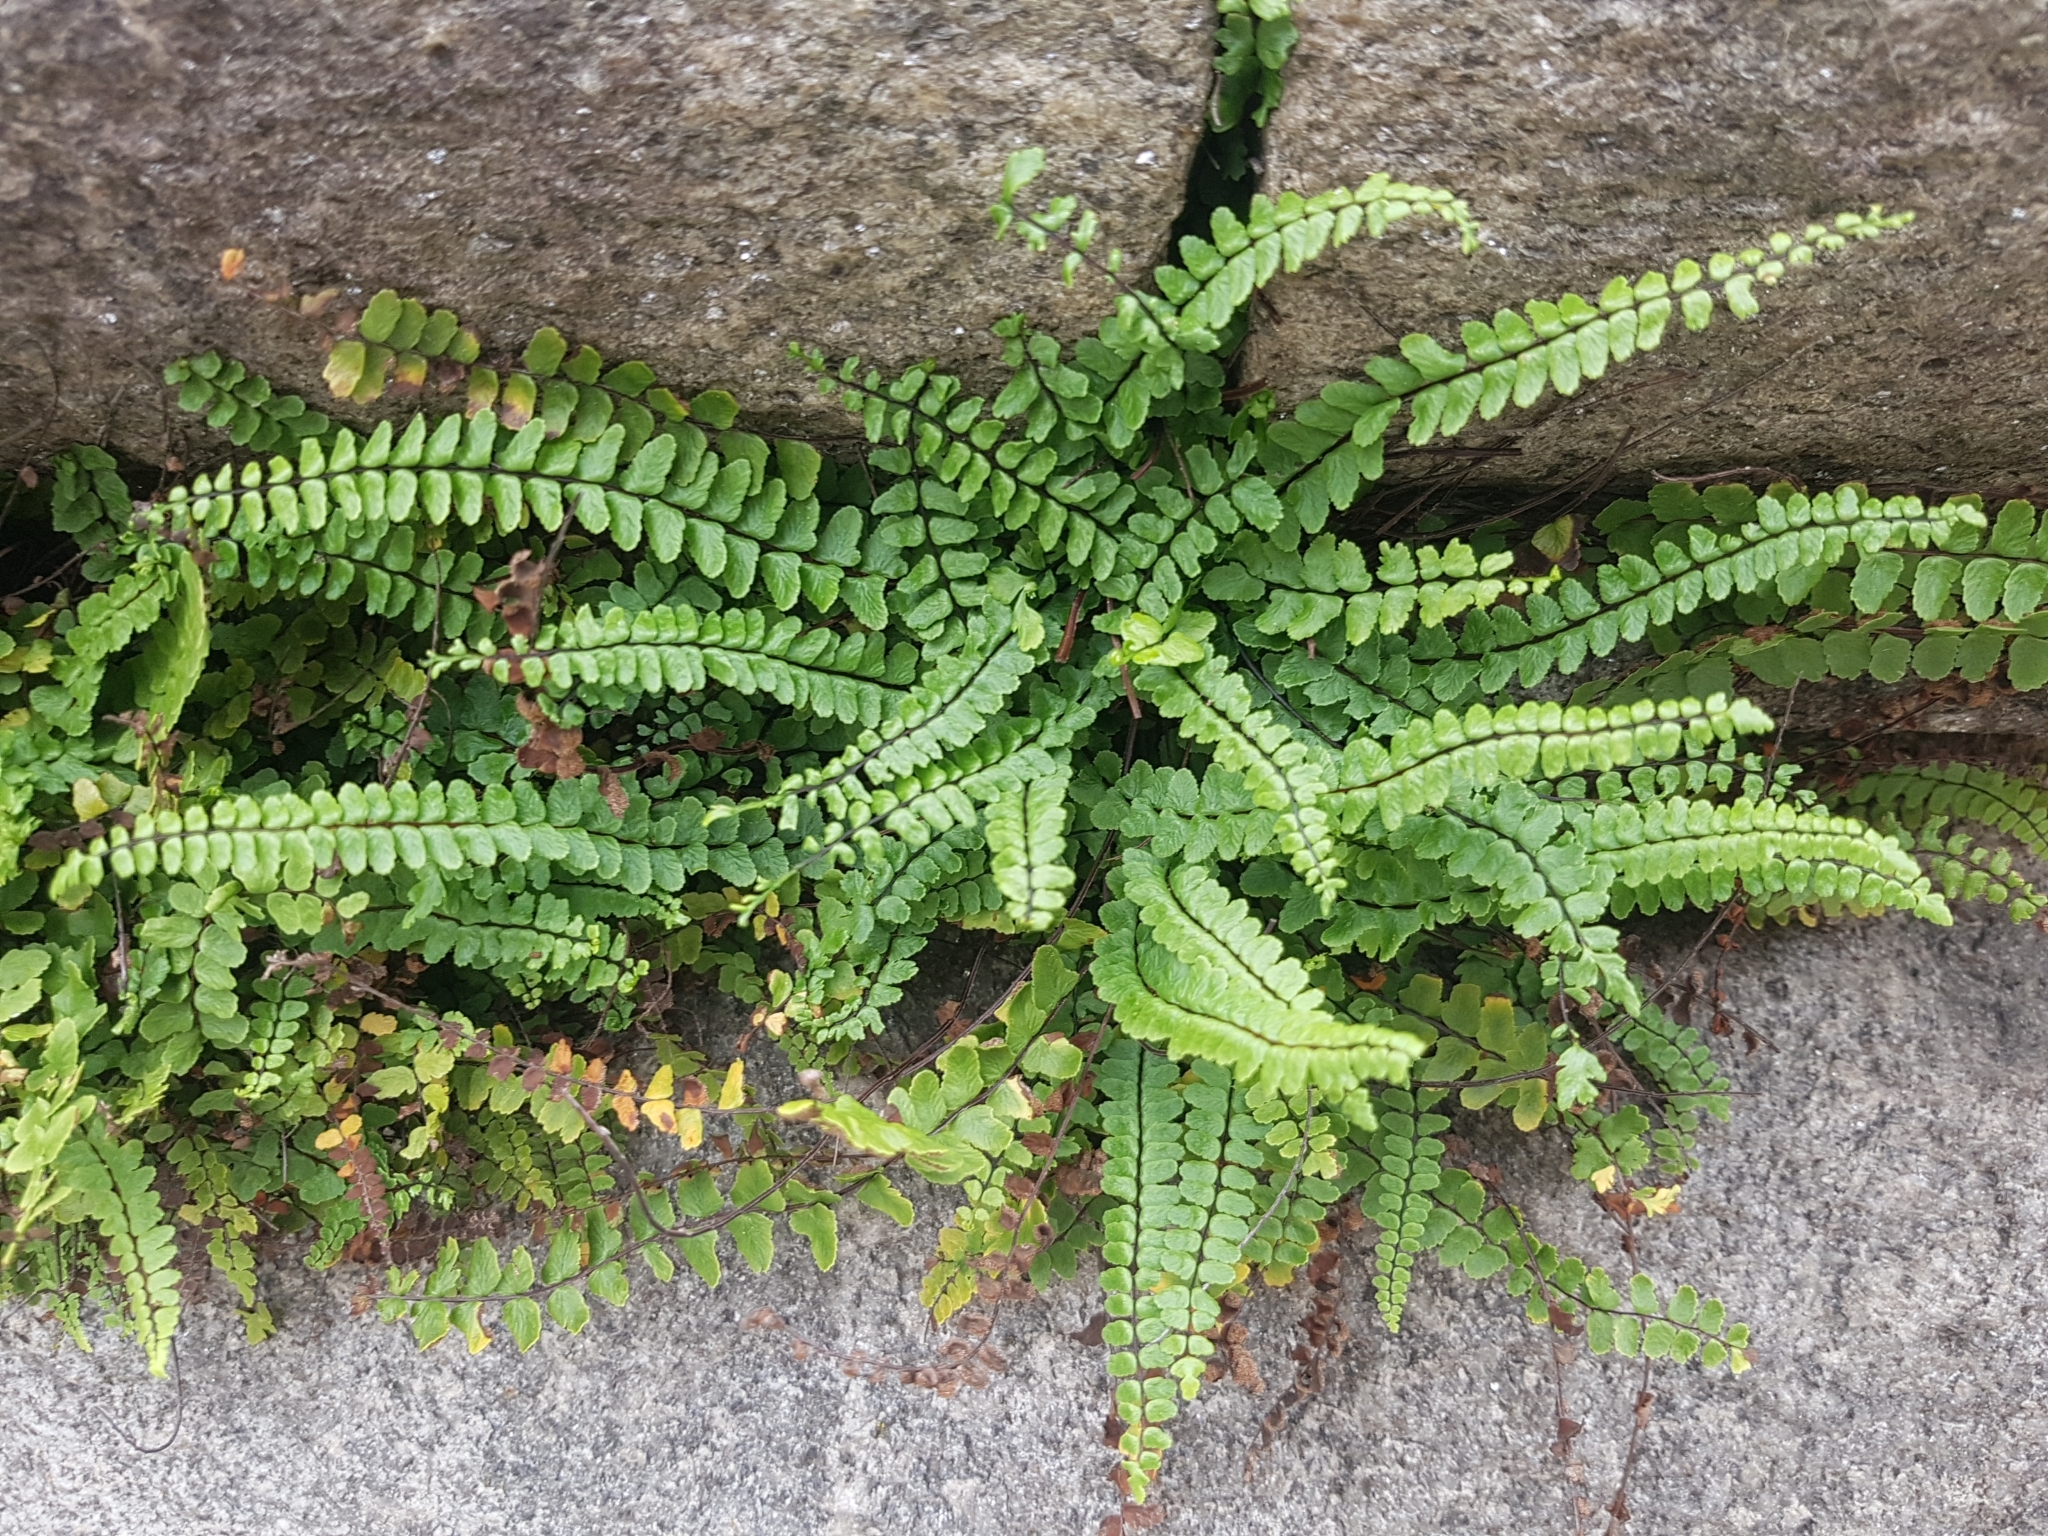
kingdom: Plantae
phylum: Tracheophyta
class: Polypodiopsida
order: Polypodiales
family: Aspleniaceae
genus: Asplenium
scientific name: Asplenium trichomanes
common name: Maidenhair spleenwort
